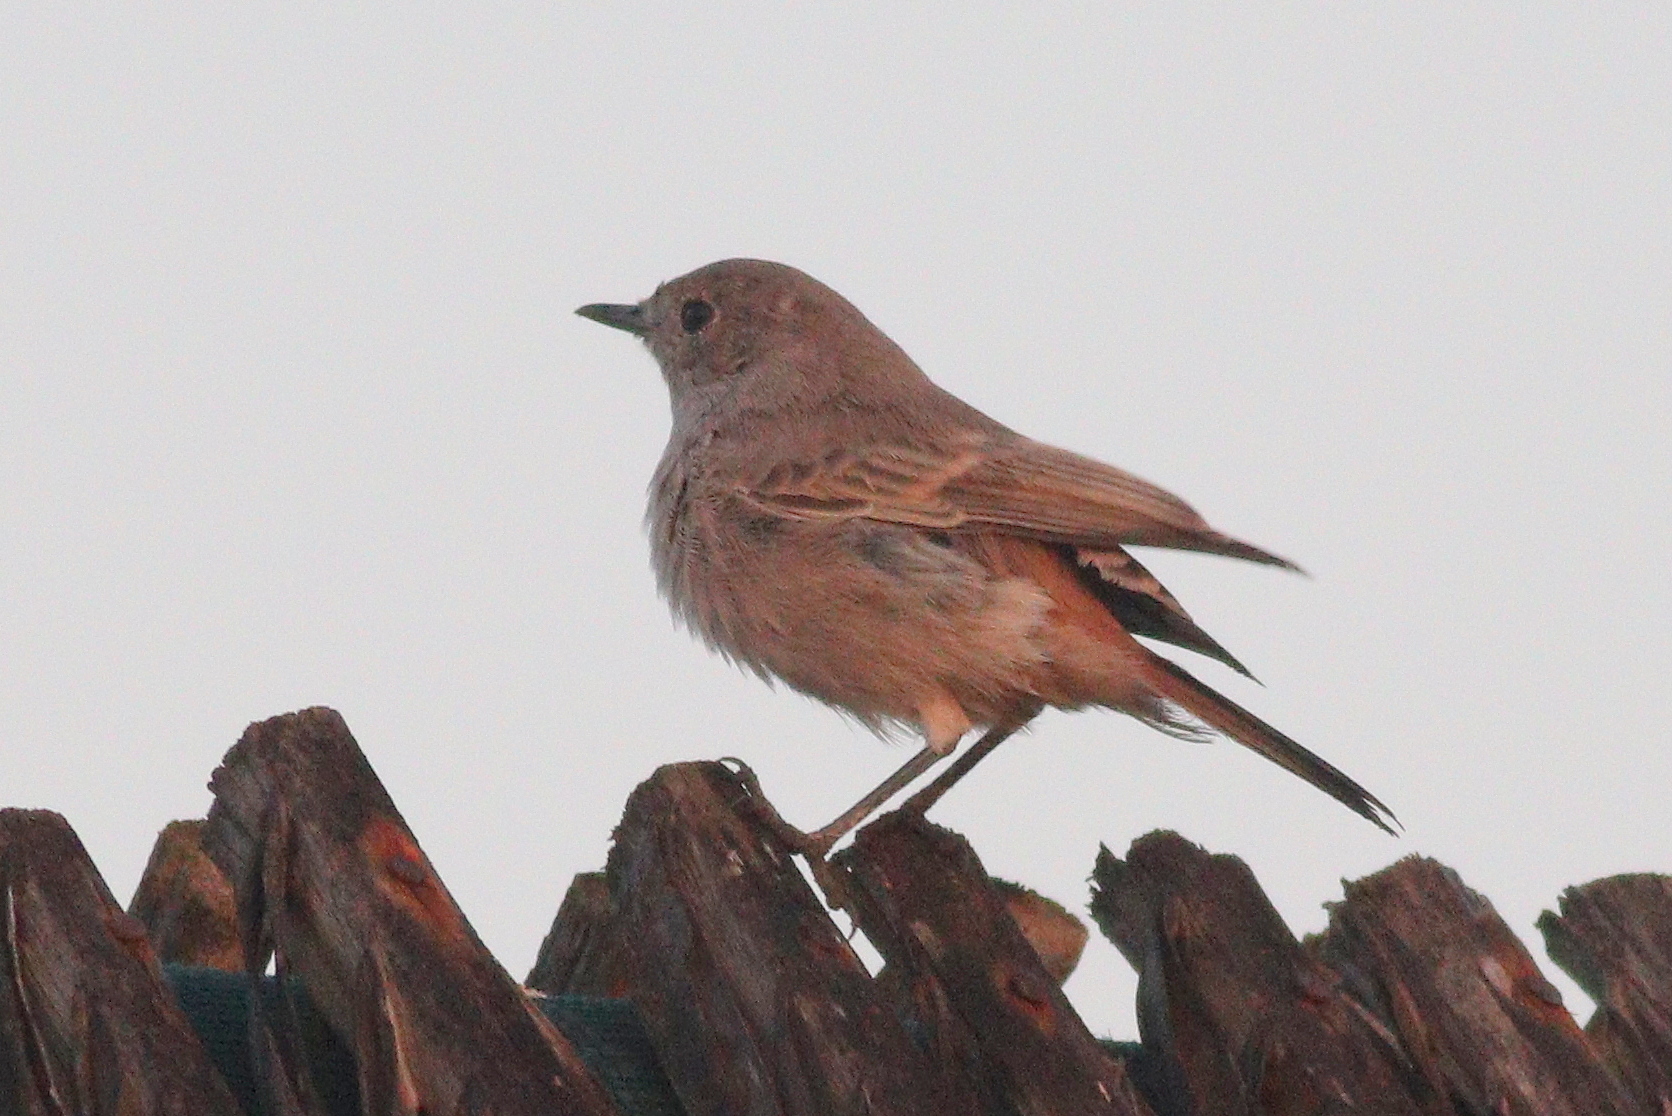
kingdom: Animalia
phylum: Chordata
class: Aves
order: Passeriformes
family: Muscicapidae
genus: Oenanthe
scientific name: Oenanthe familiaris
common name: Familiar chat
